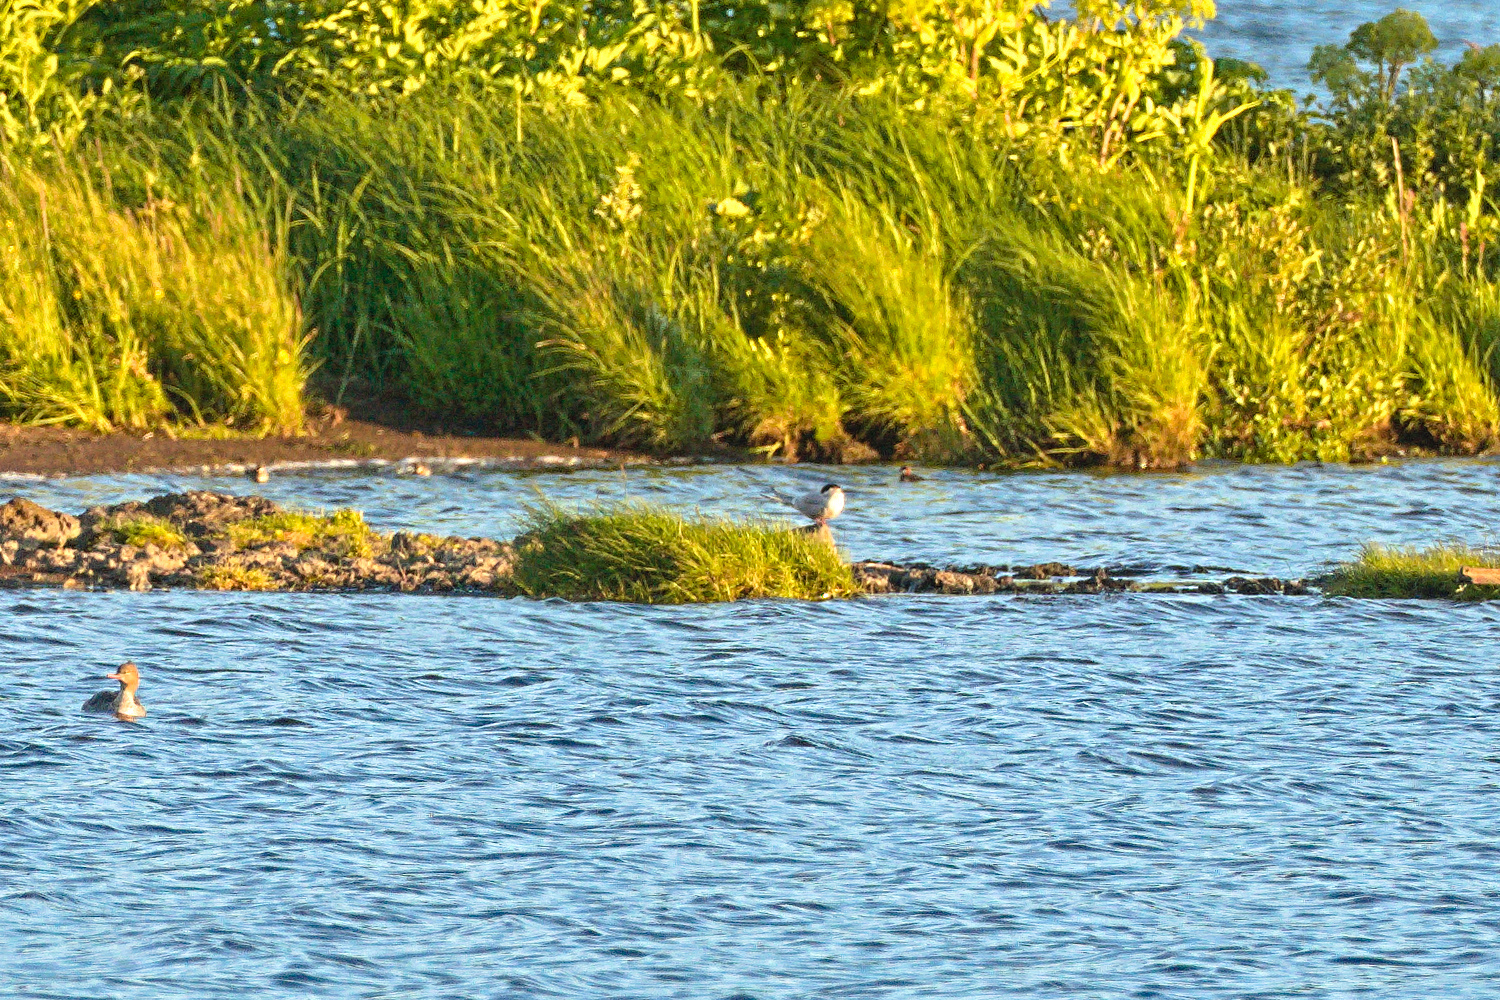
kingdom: Animalia
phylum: Chordata
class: Aves
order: Charadriiformes
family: Laridae
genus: Sterna
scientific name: Sterna paradisaea
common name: Arctic tern
